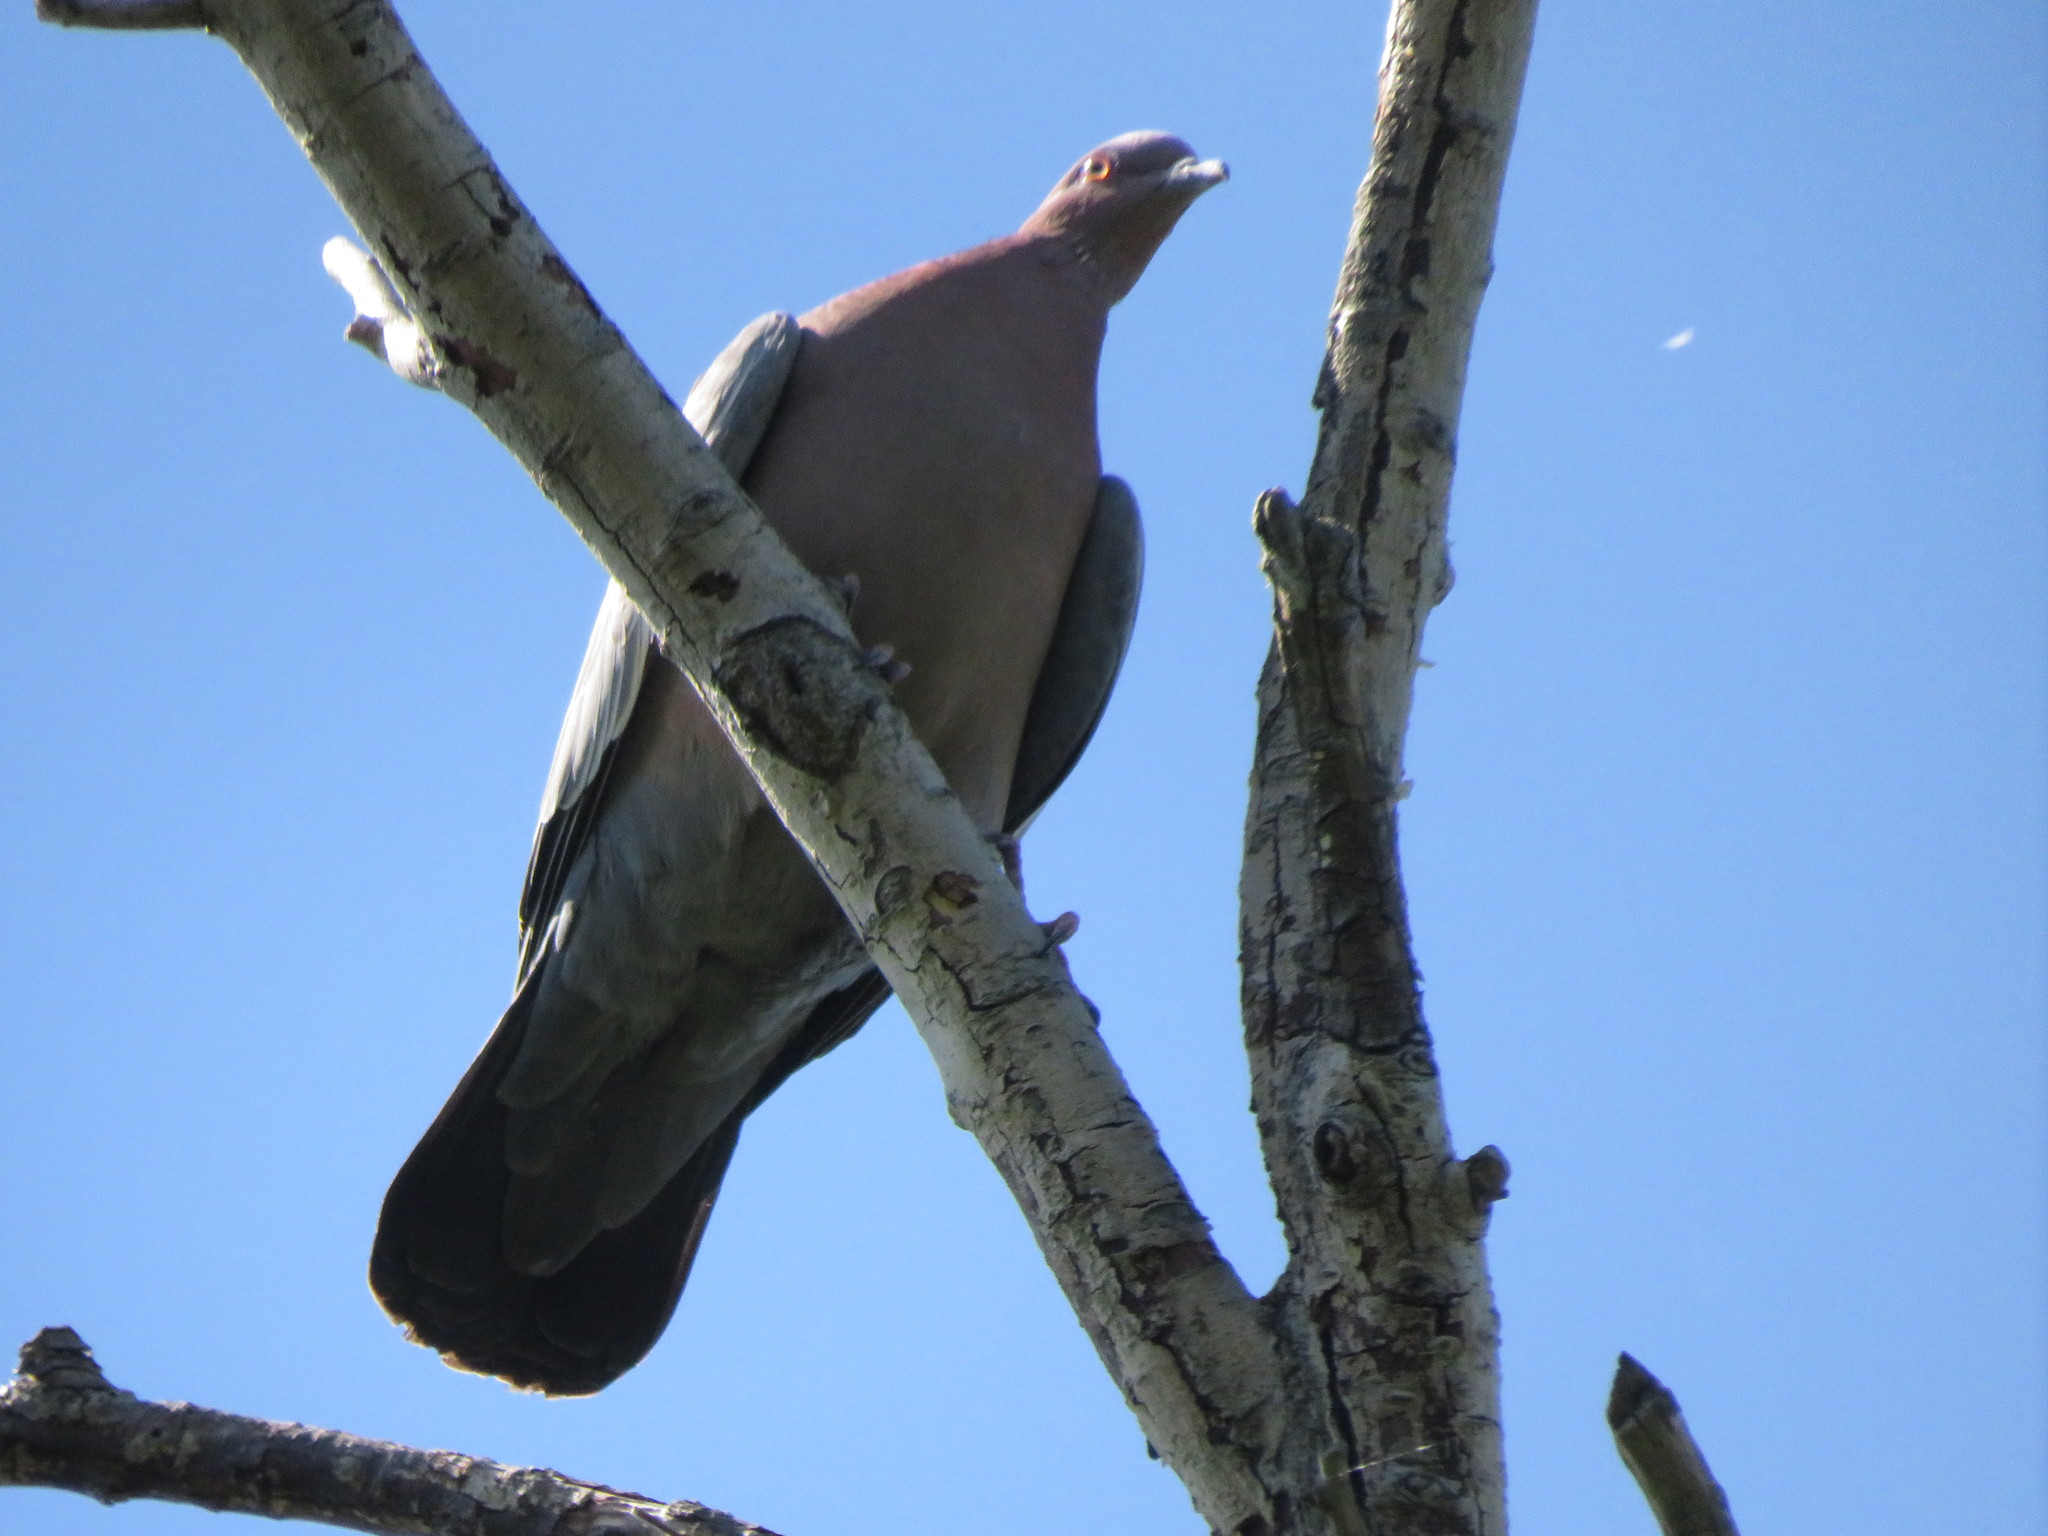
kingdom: Animalia
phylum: Chordata
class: Aves
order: Columbiformes
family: Columbidae
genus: Patagioenas
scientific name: Patagioenas picazuro
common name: Picazuro pigeon
